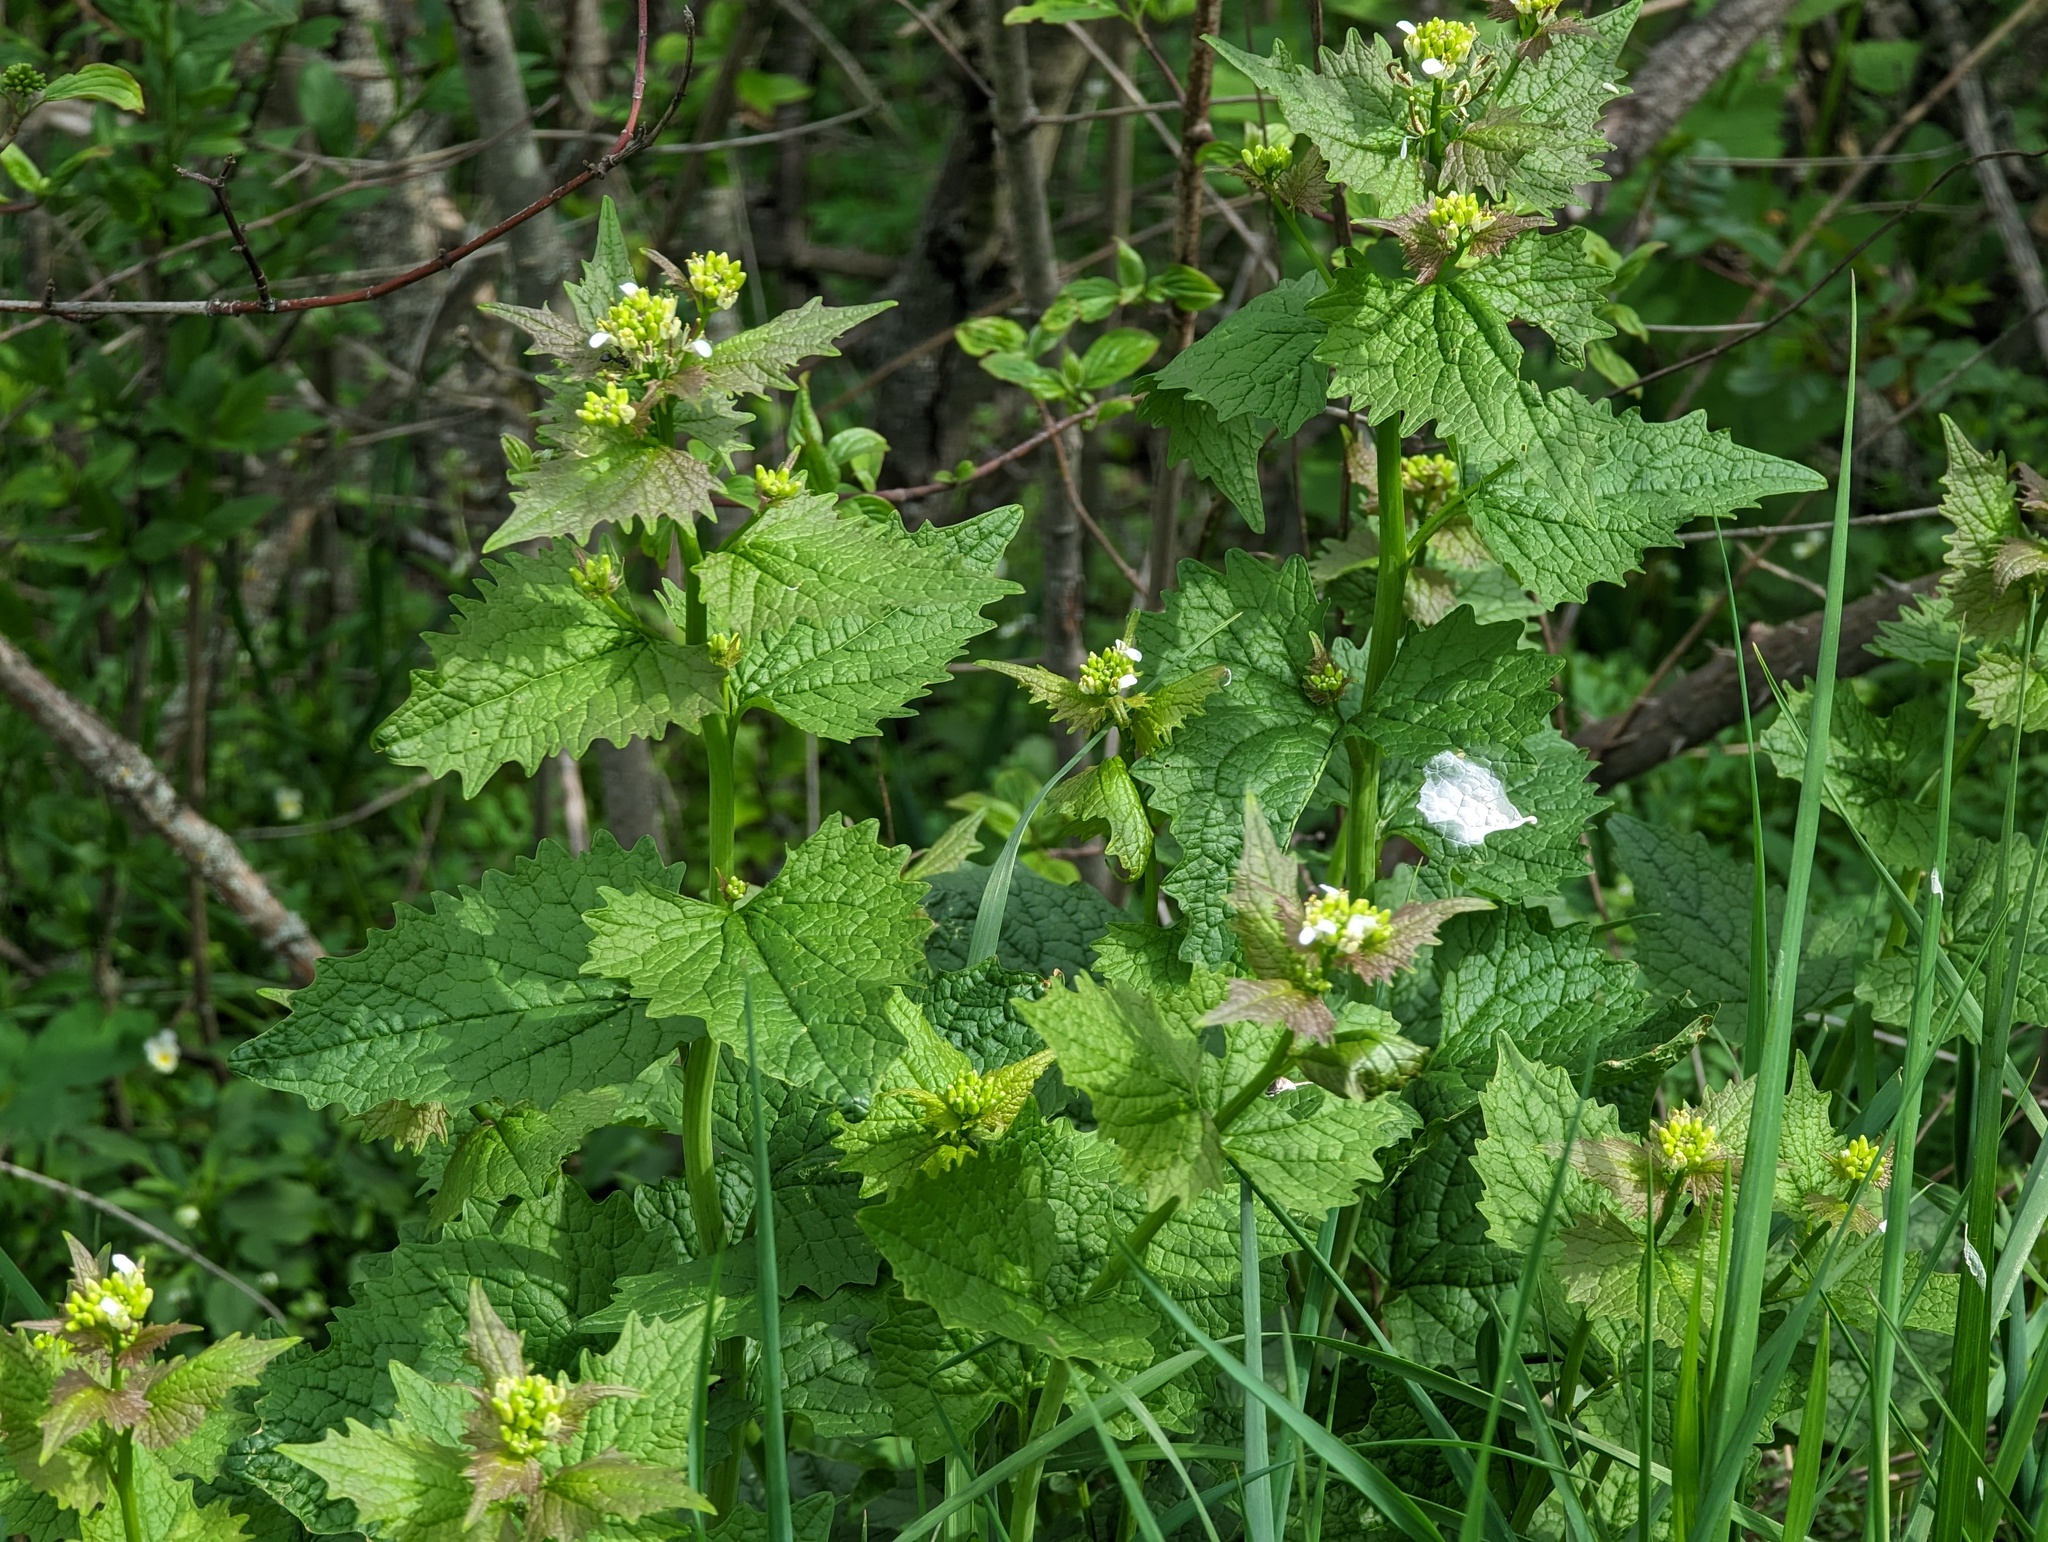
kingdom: Plantae
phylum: Tracheophyta
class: Magnoliopsida
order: Brassicales
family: Brassicaceae
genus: Alliaria
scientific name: Alliaria petiolata
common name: Garlic mustard
